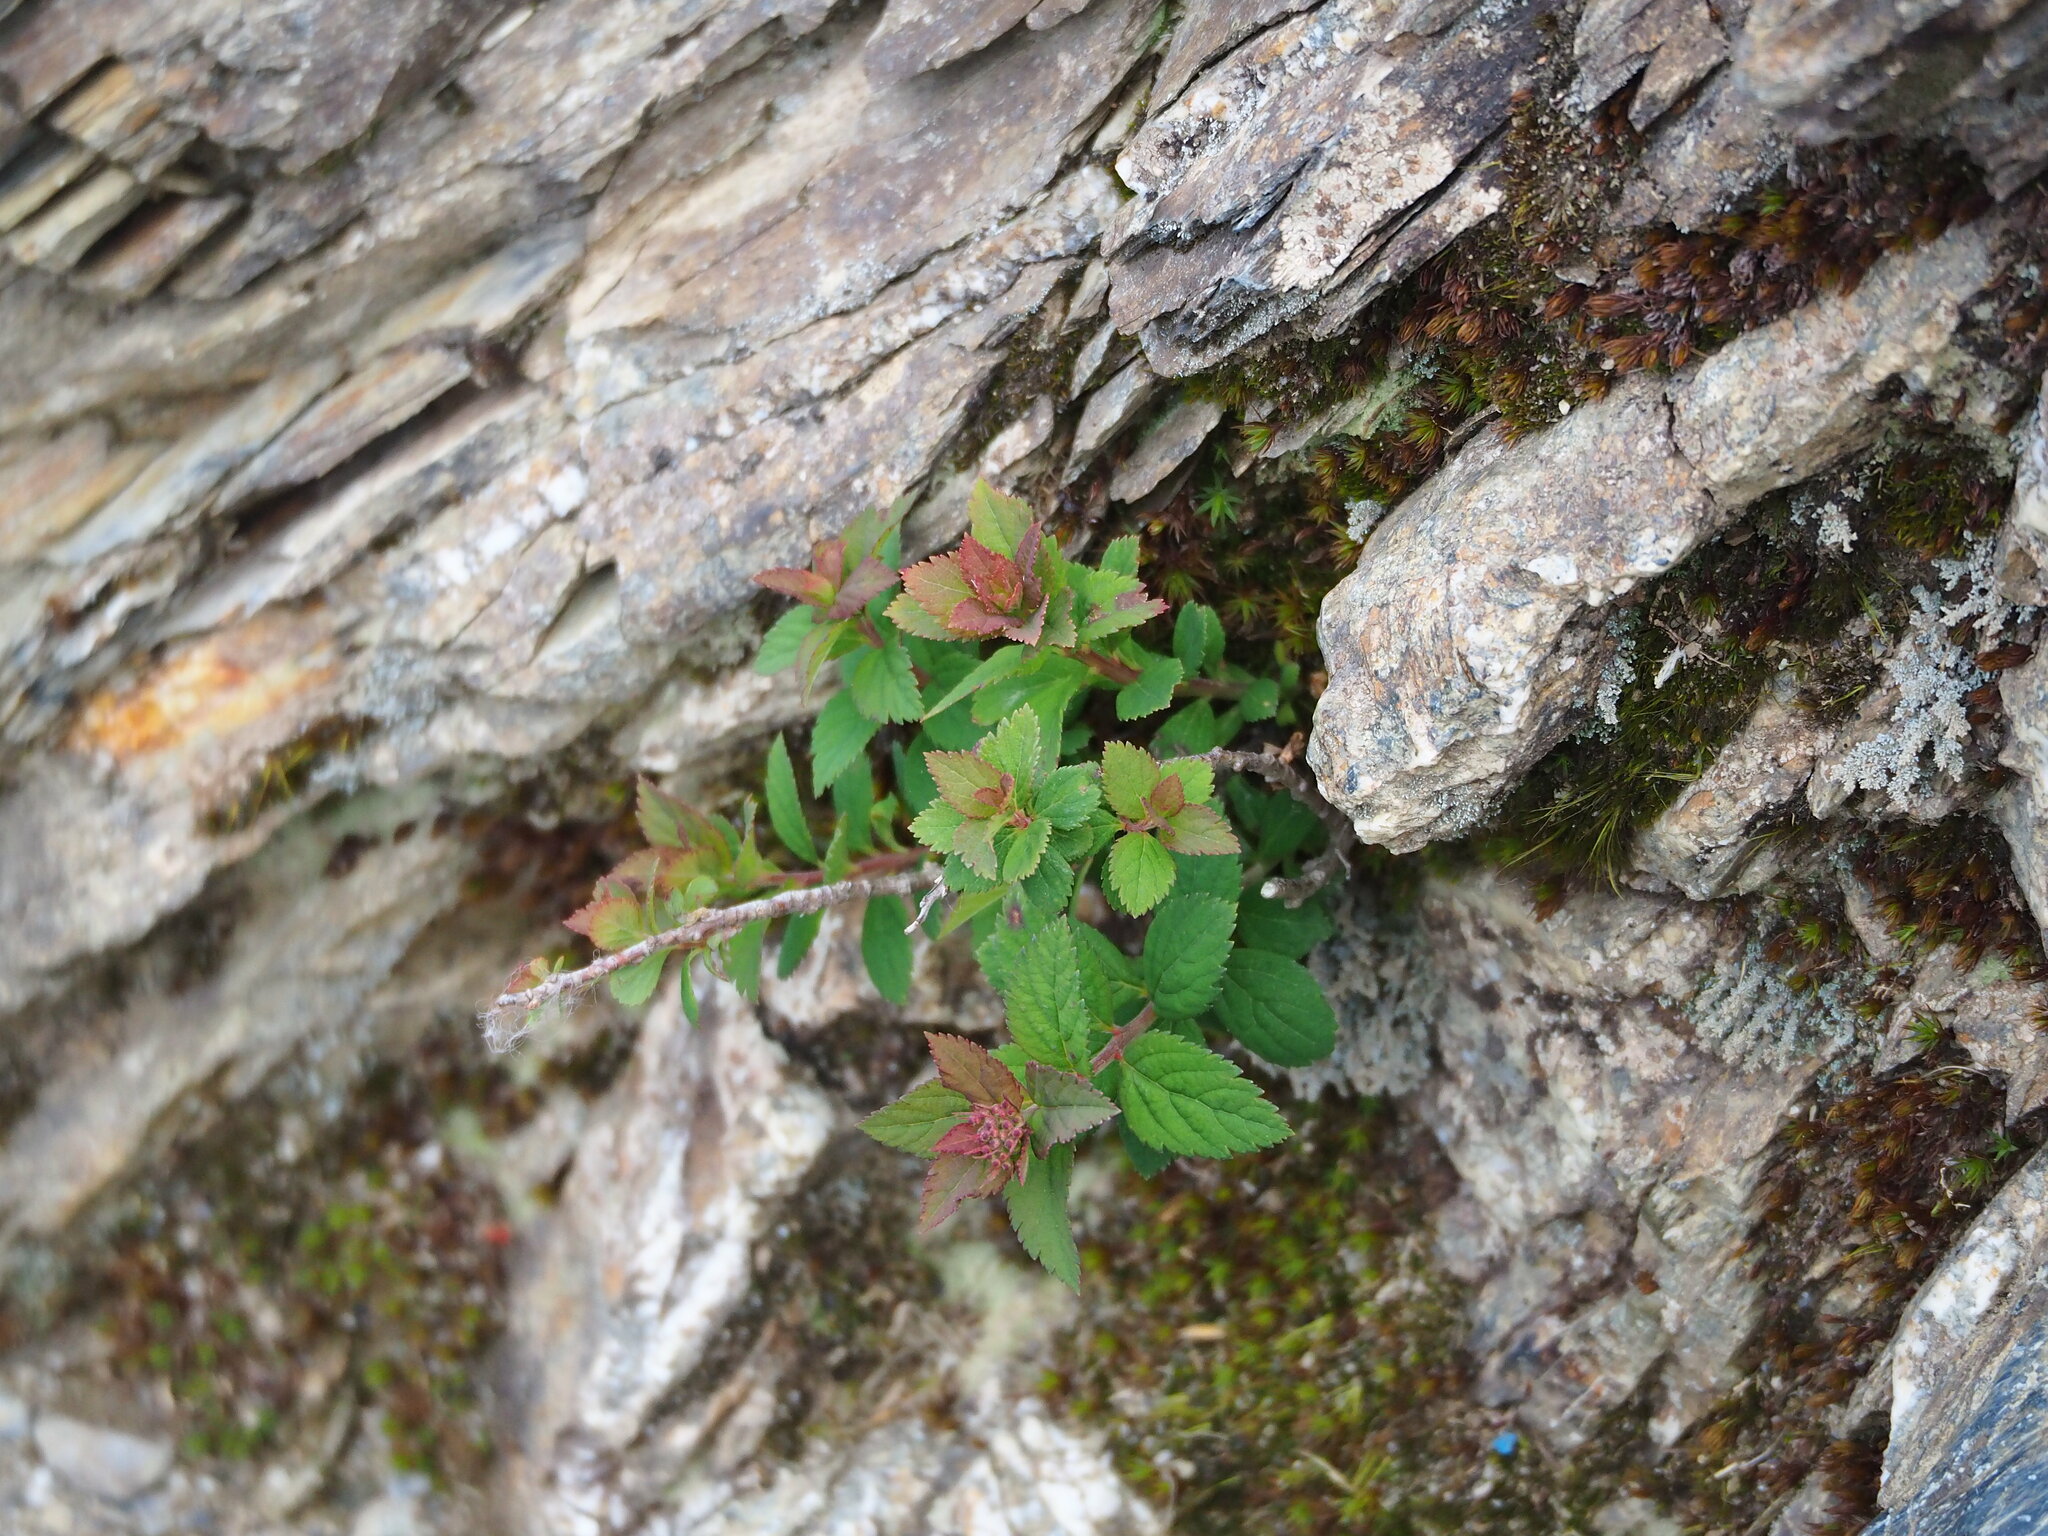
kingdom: Plantae
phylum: Tracheophyta
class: Magnoliopsida
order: Rosales
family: Rosaceae
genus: Spiraea
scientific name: Spiraea morrisonicola
